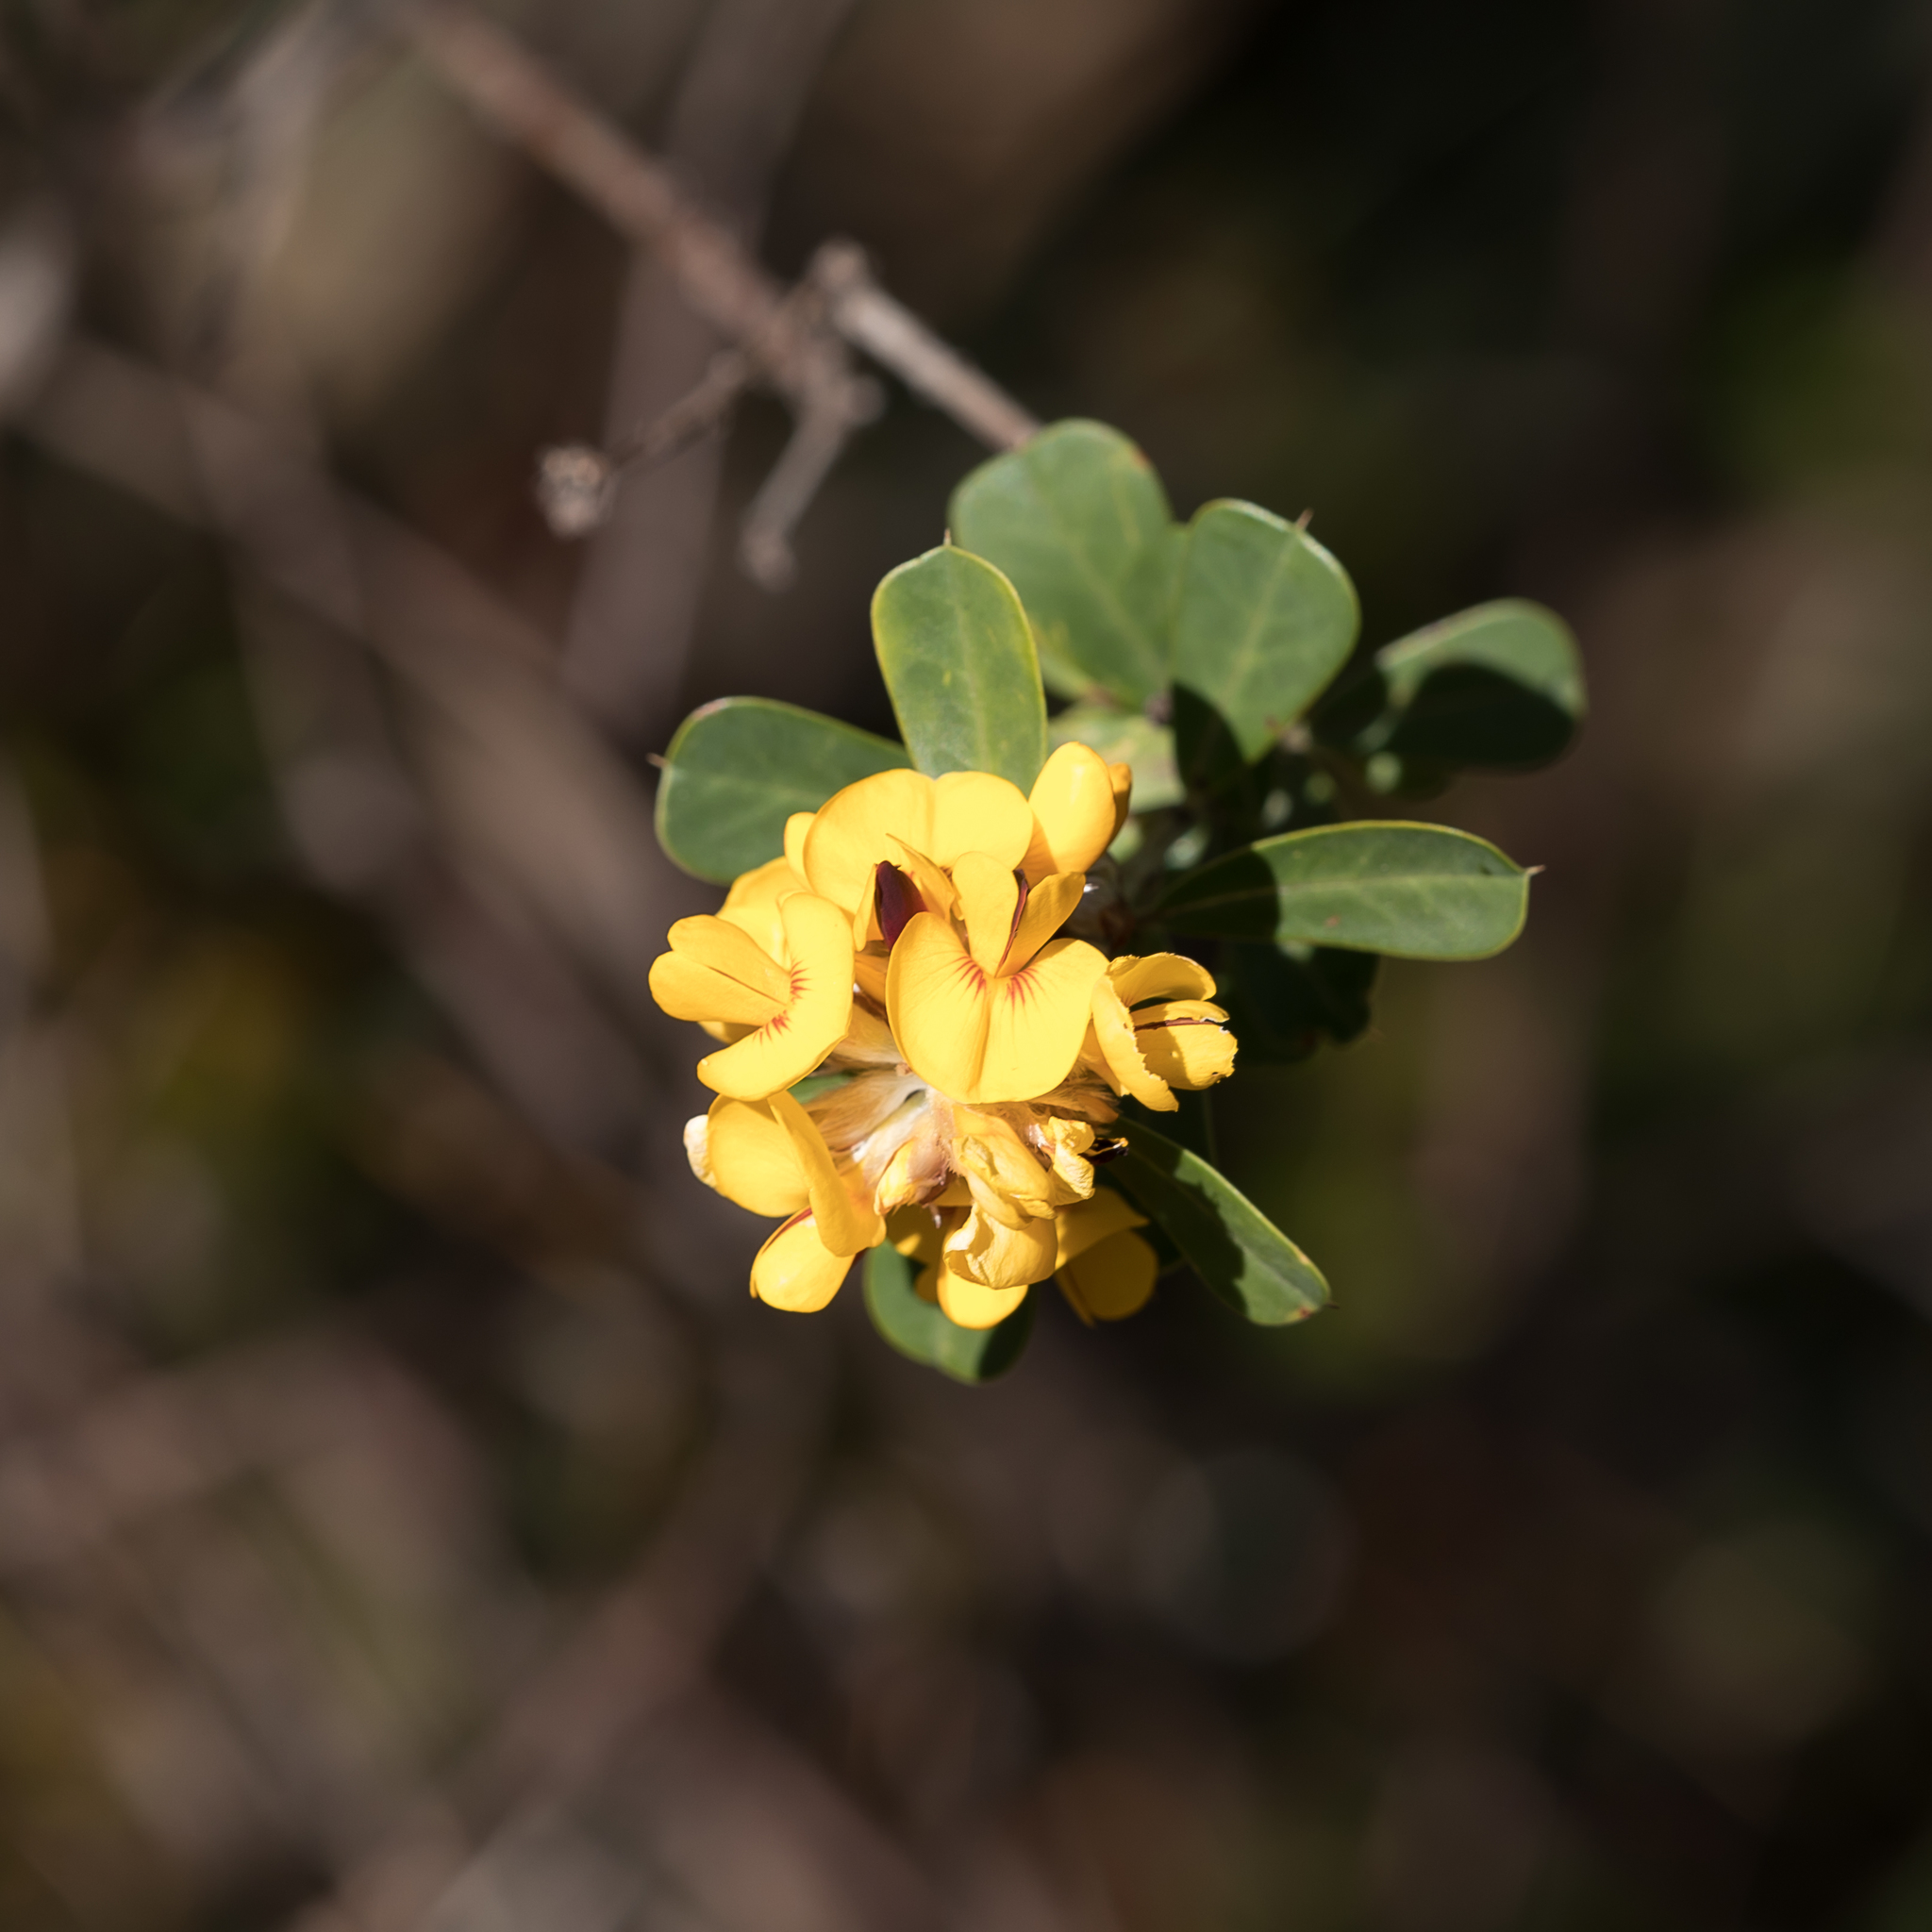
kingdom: Plantae
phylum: Tracheophyta
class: Magnoliopsida
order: Fabales
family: Fabaceae
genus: Pultenaea
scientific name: Pultenaea daphnoides
